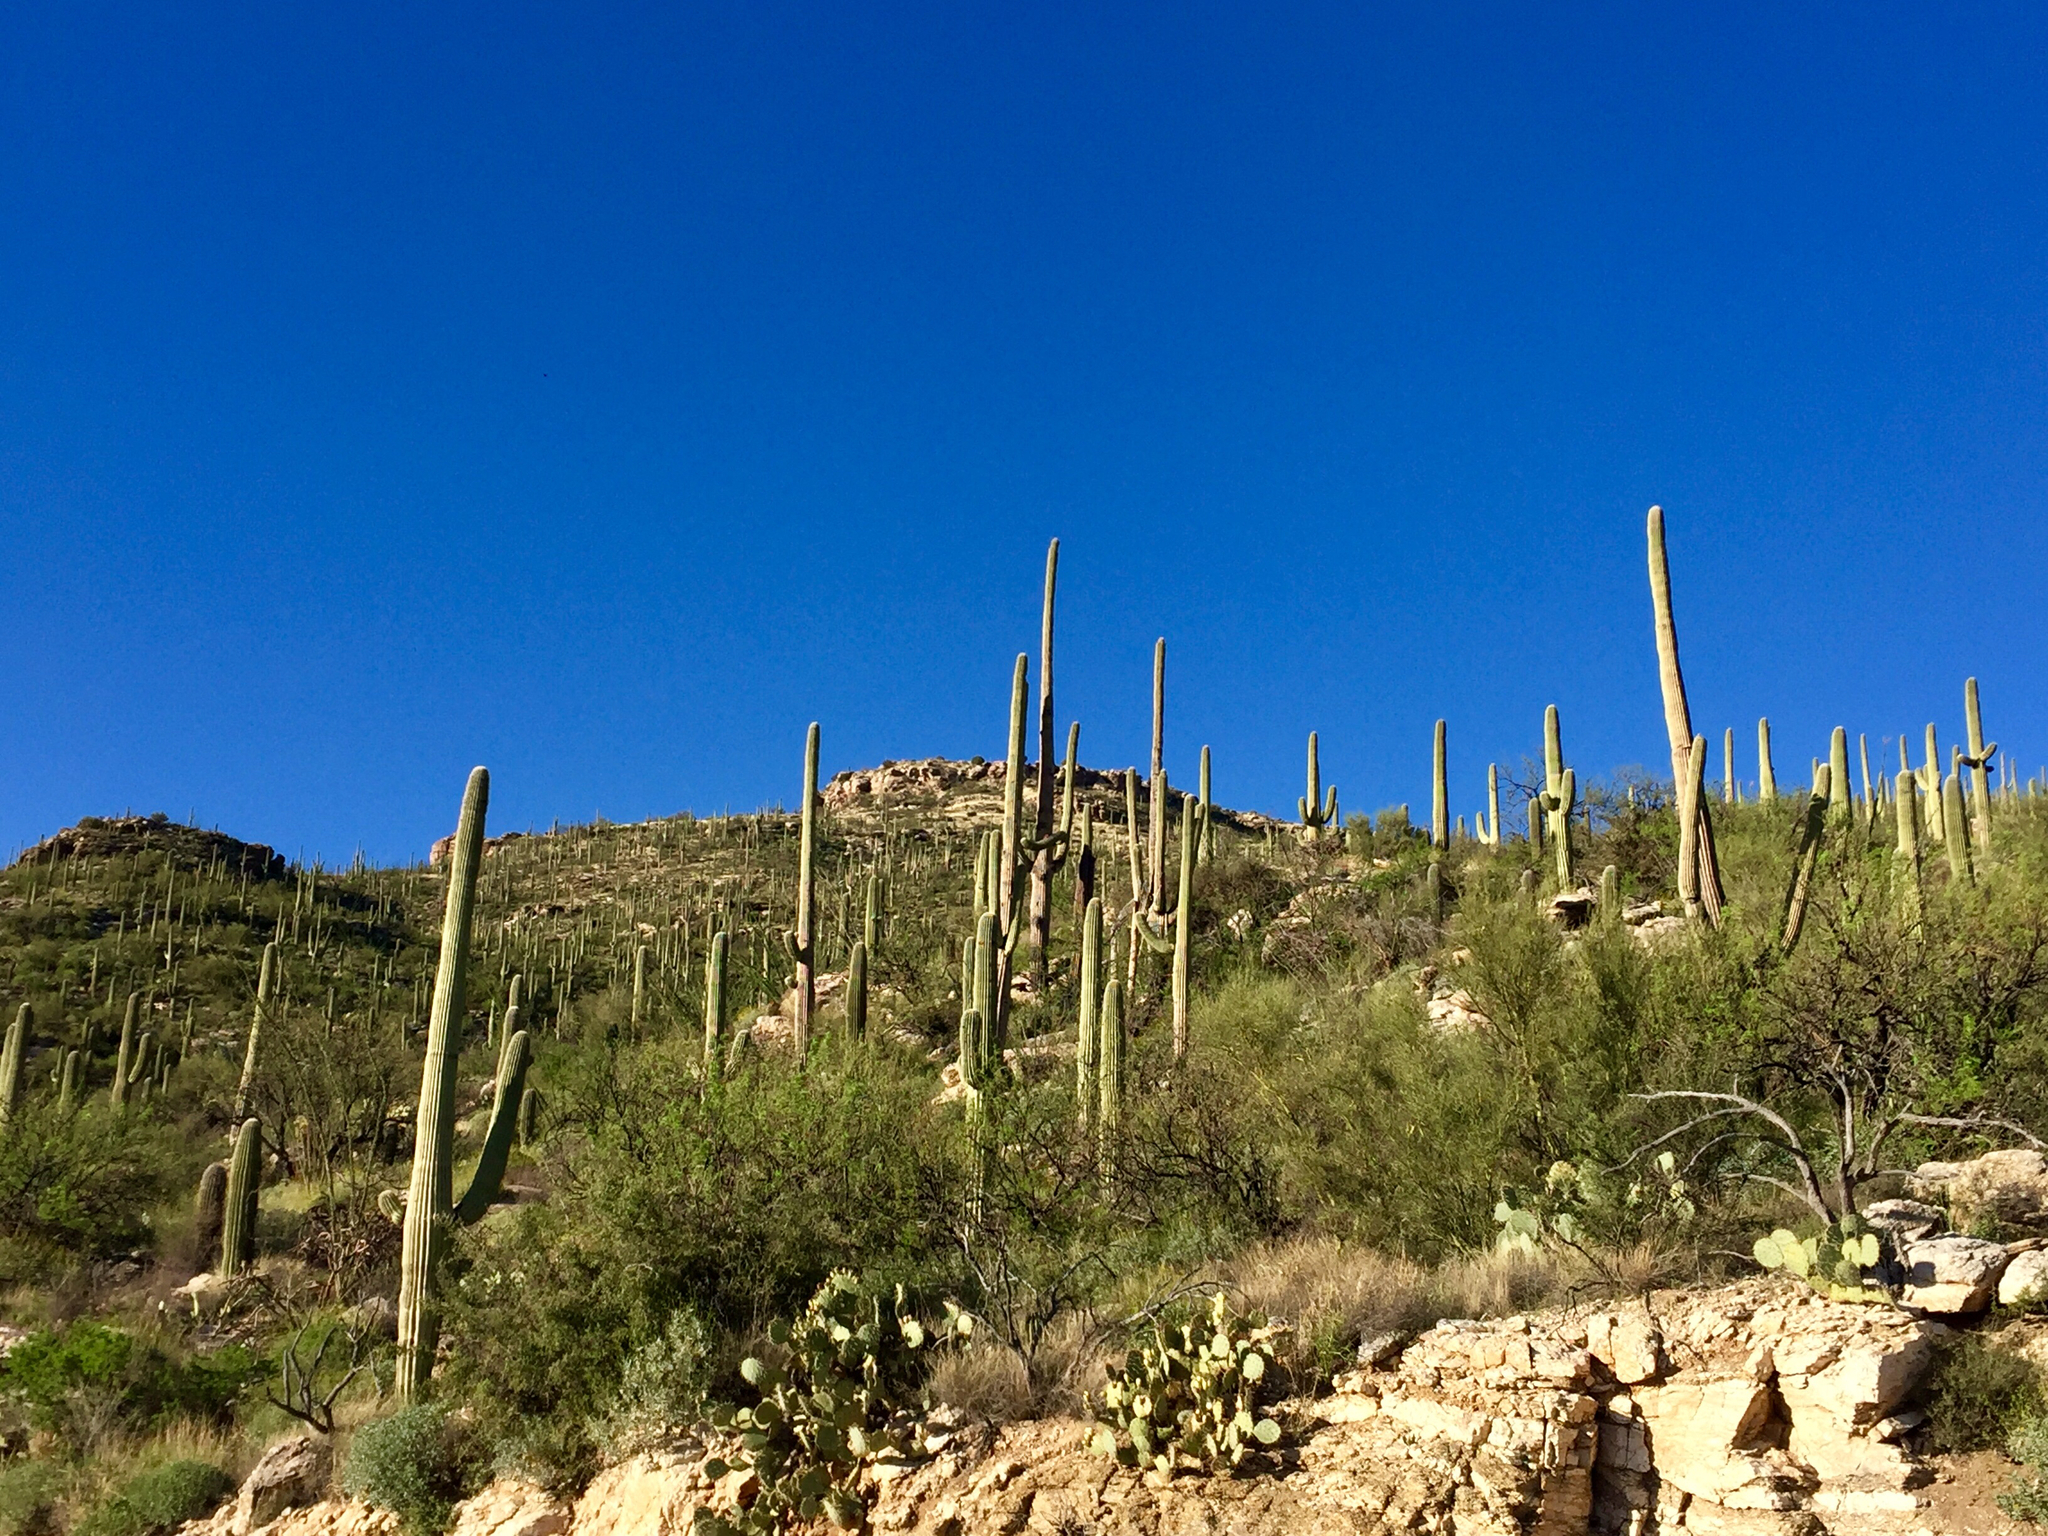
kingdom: Plantae
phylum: Tracheophyta
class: Magnoliopsida
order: Caryophyllales
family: Cactaceae
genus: Carnegiea
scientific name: Carnegiea gigantea
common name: Saguaro
